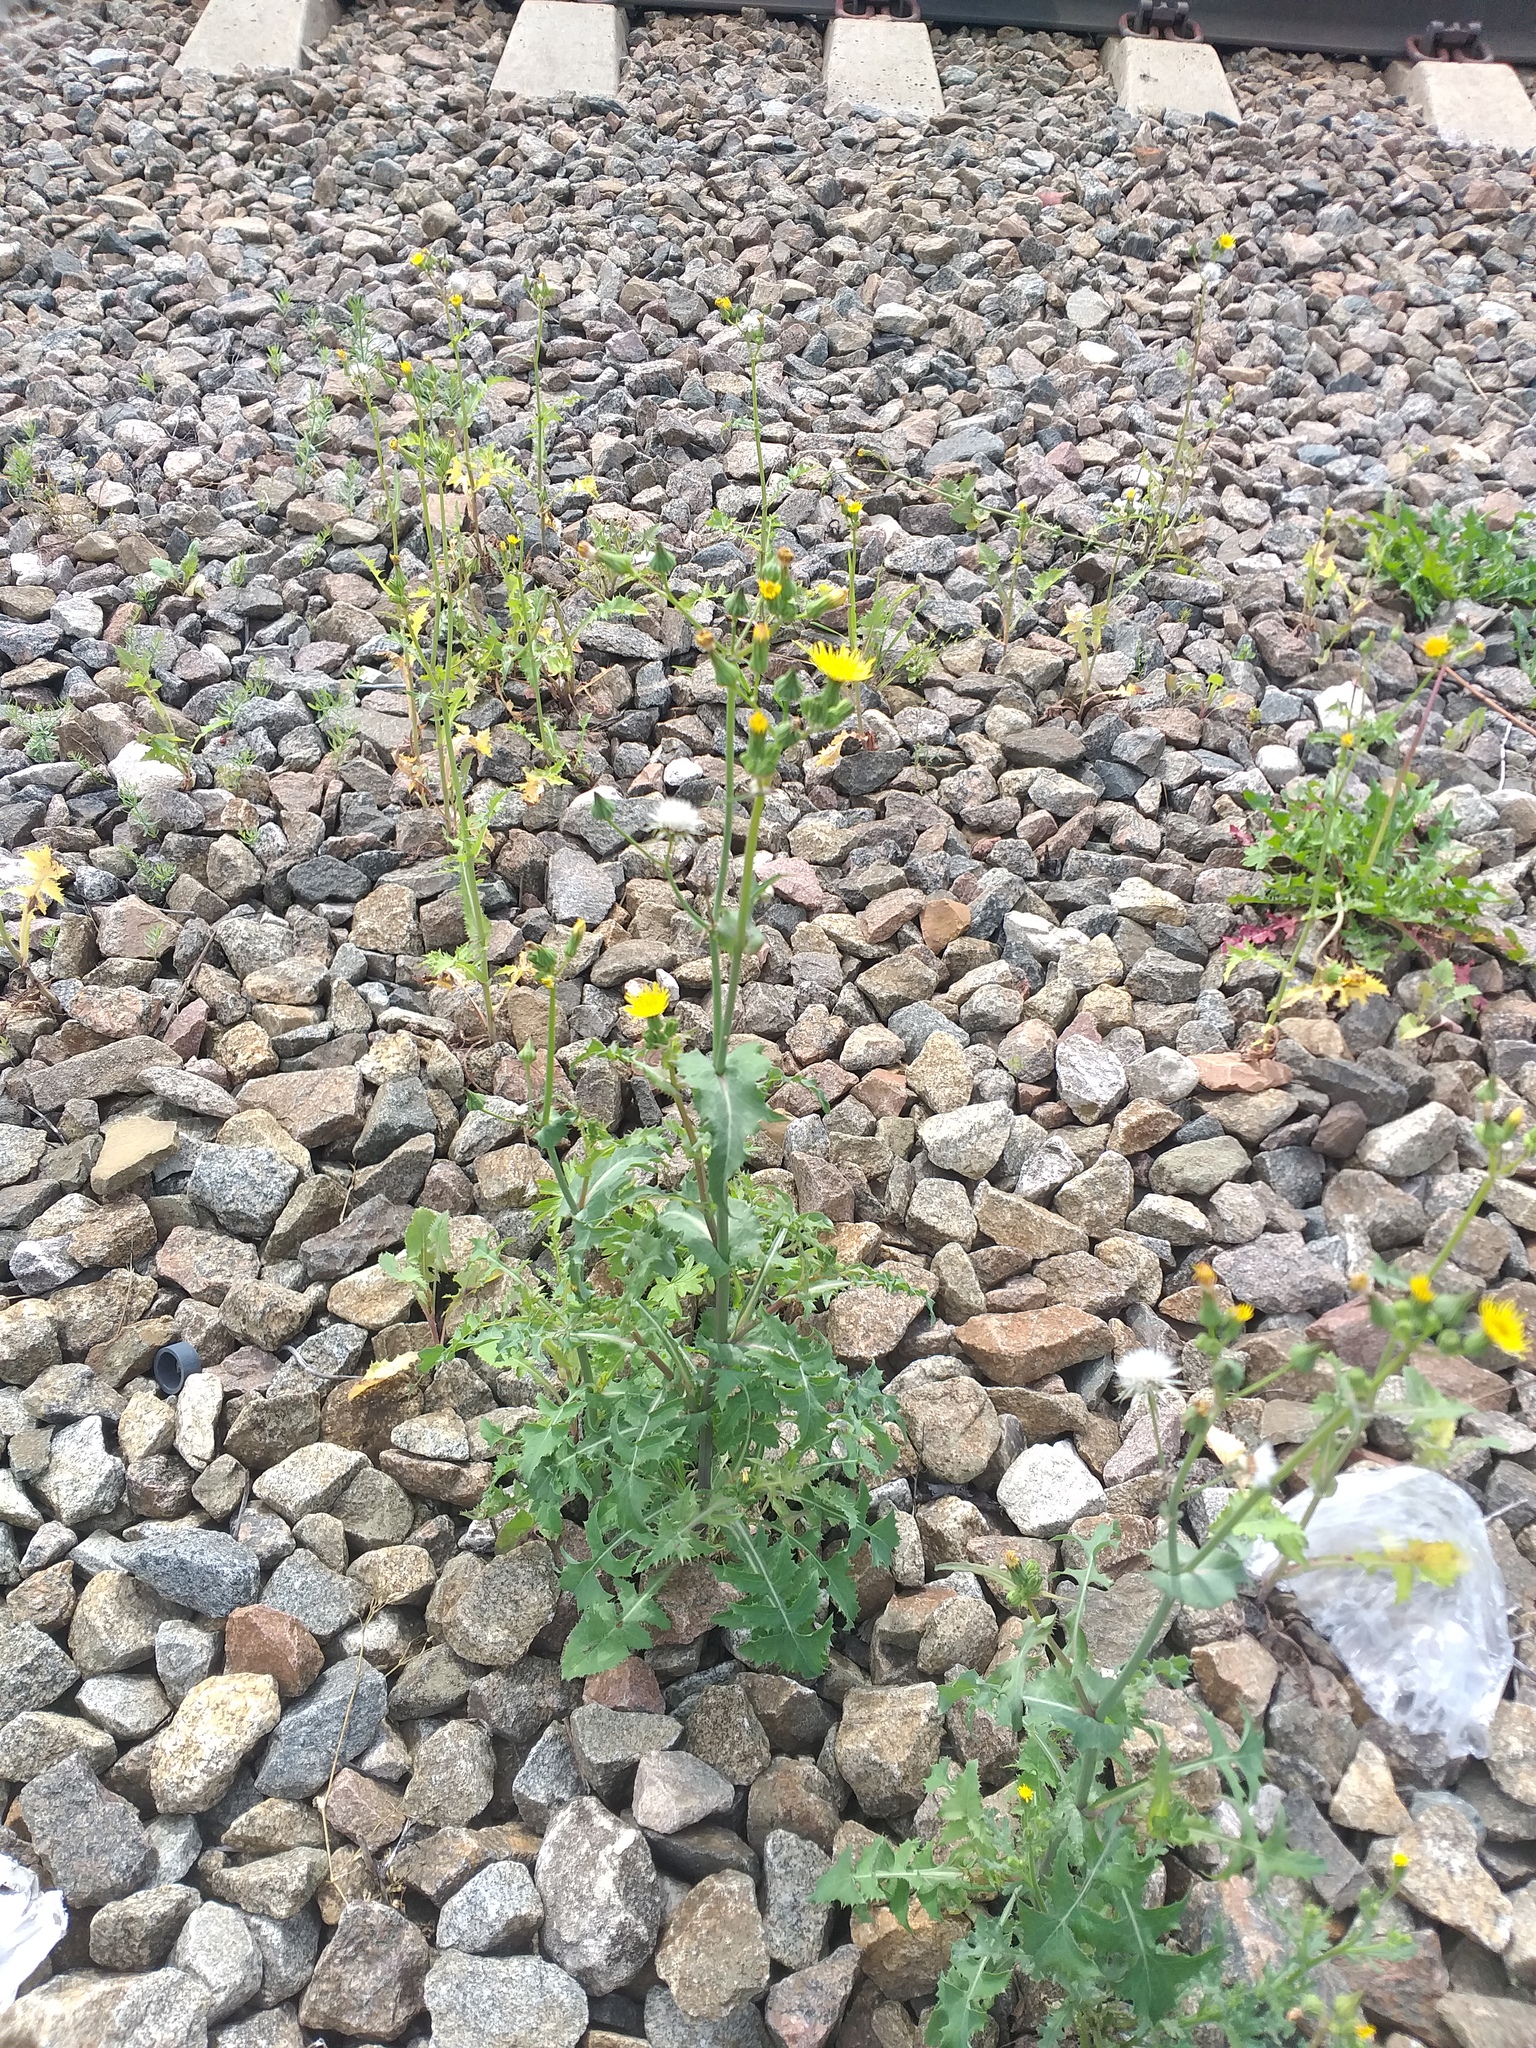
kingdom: Plantae
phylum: Tracheophyta
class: Magnoliopsida
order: Asterales
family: Asteraceae
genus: Sonchus
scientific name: Sonchus oleraceus
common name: Common sowthistle
